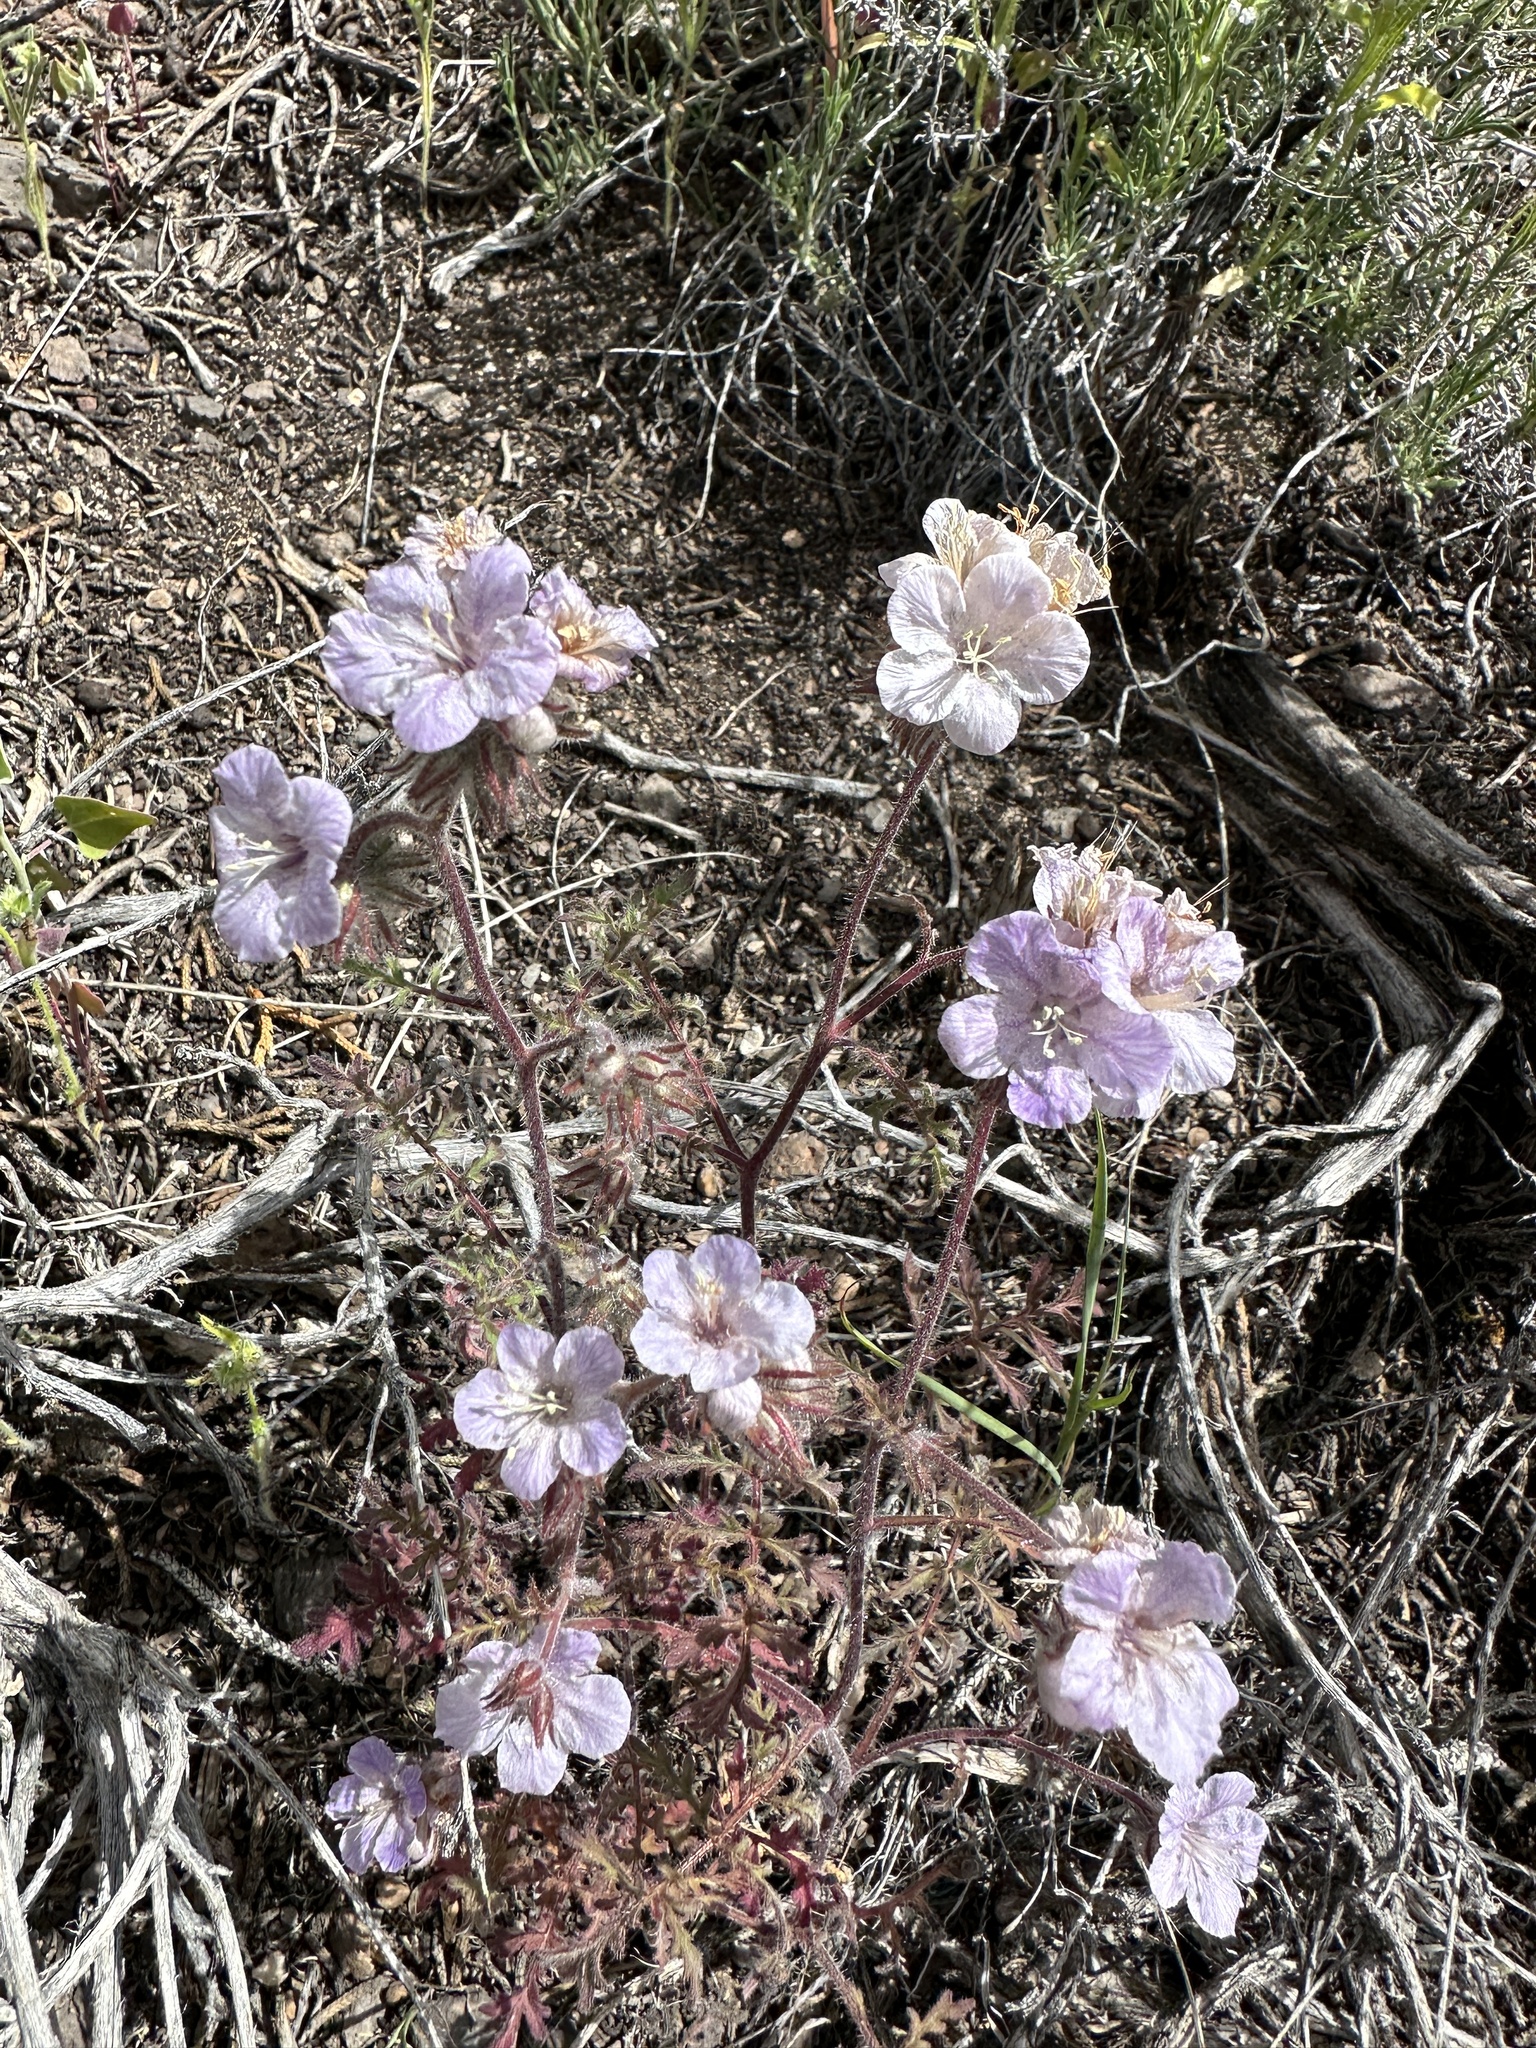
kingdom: Plantae
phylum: Tracheophyta
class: Magnoliopsida
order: Boraginales
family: Hydrophyllaceae
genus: Phacelia
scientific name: Phacelia vallis-mortae
